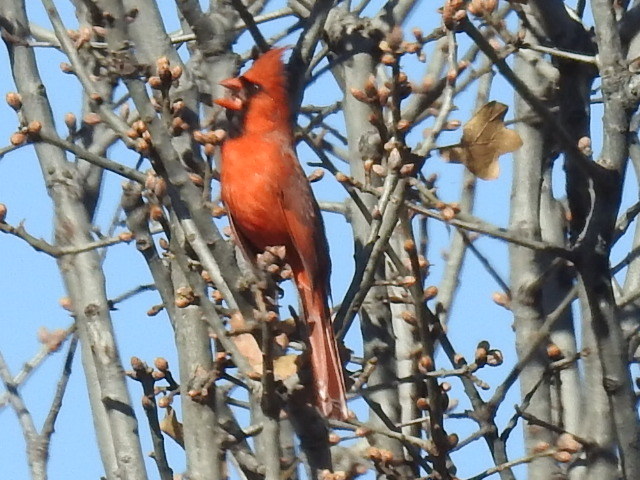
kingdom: Animalia
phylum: Chordata
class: Aves
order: Passeriformes
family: Cardinalidae
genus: Cardinalis
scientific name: Cardinalis cardinalis
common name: Northern cardinal
